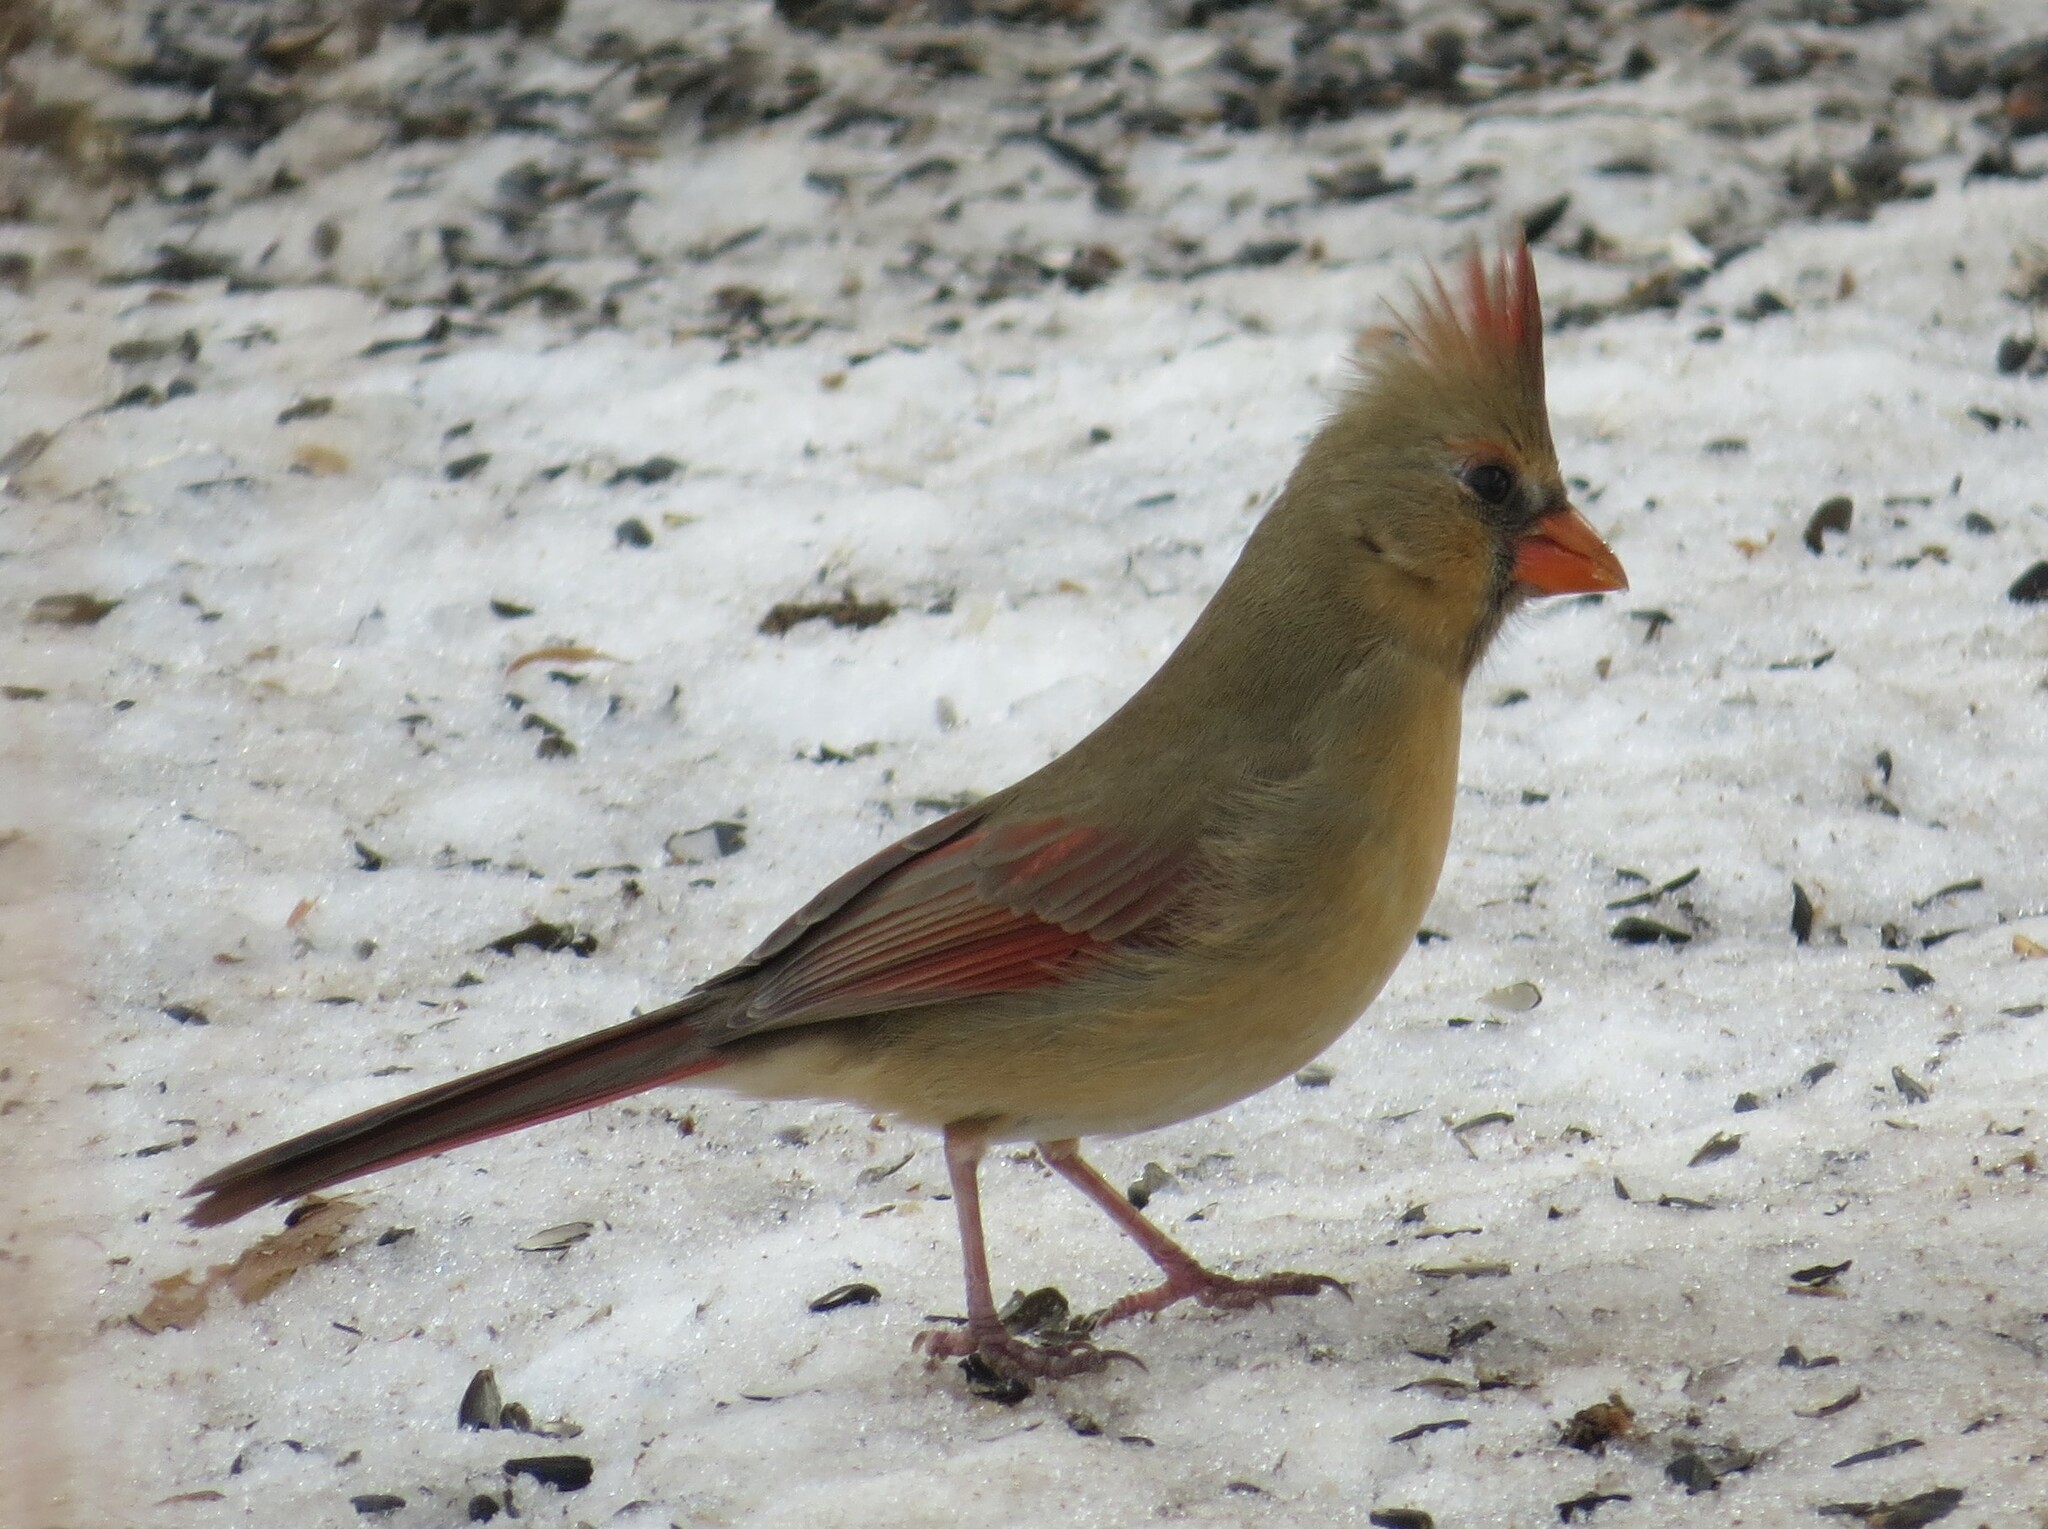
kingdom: Animalia
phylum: Chordata
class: Aves
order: Passeriformes
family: Cardinalidae
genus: Cardinalis
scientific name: Cardinalis cardinalis
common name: Northern cardinal
